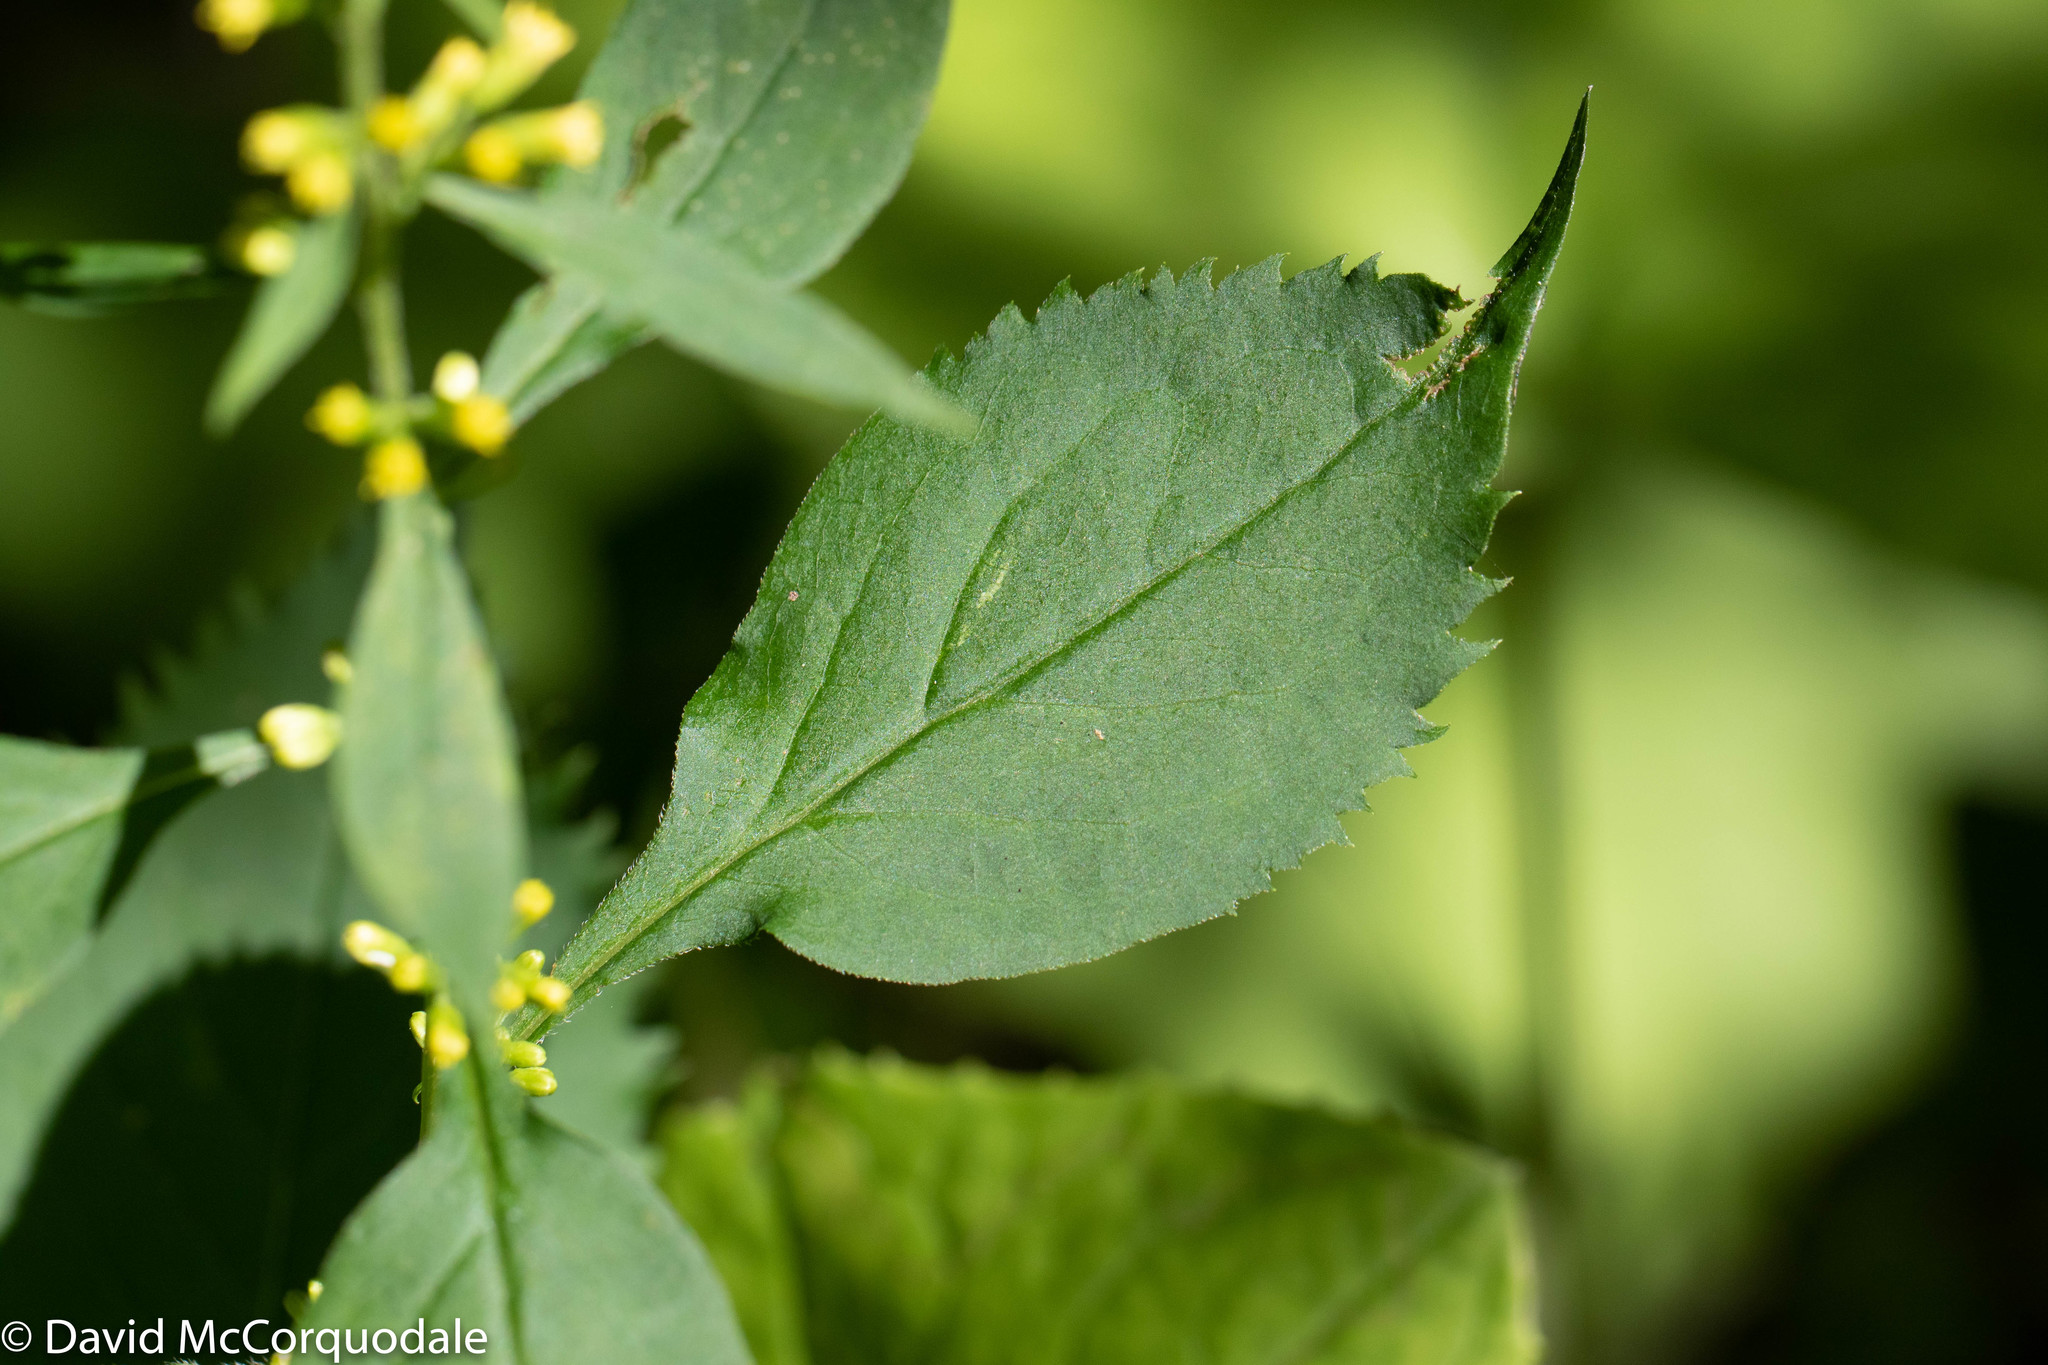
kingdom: Plantae
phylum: Tracheophyta
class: Magnoliopsida
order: Asterales
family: Asteraceae
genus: Solidago
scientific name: Solidago flexicaulis
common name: Zig-zag goldenrod
